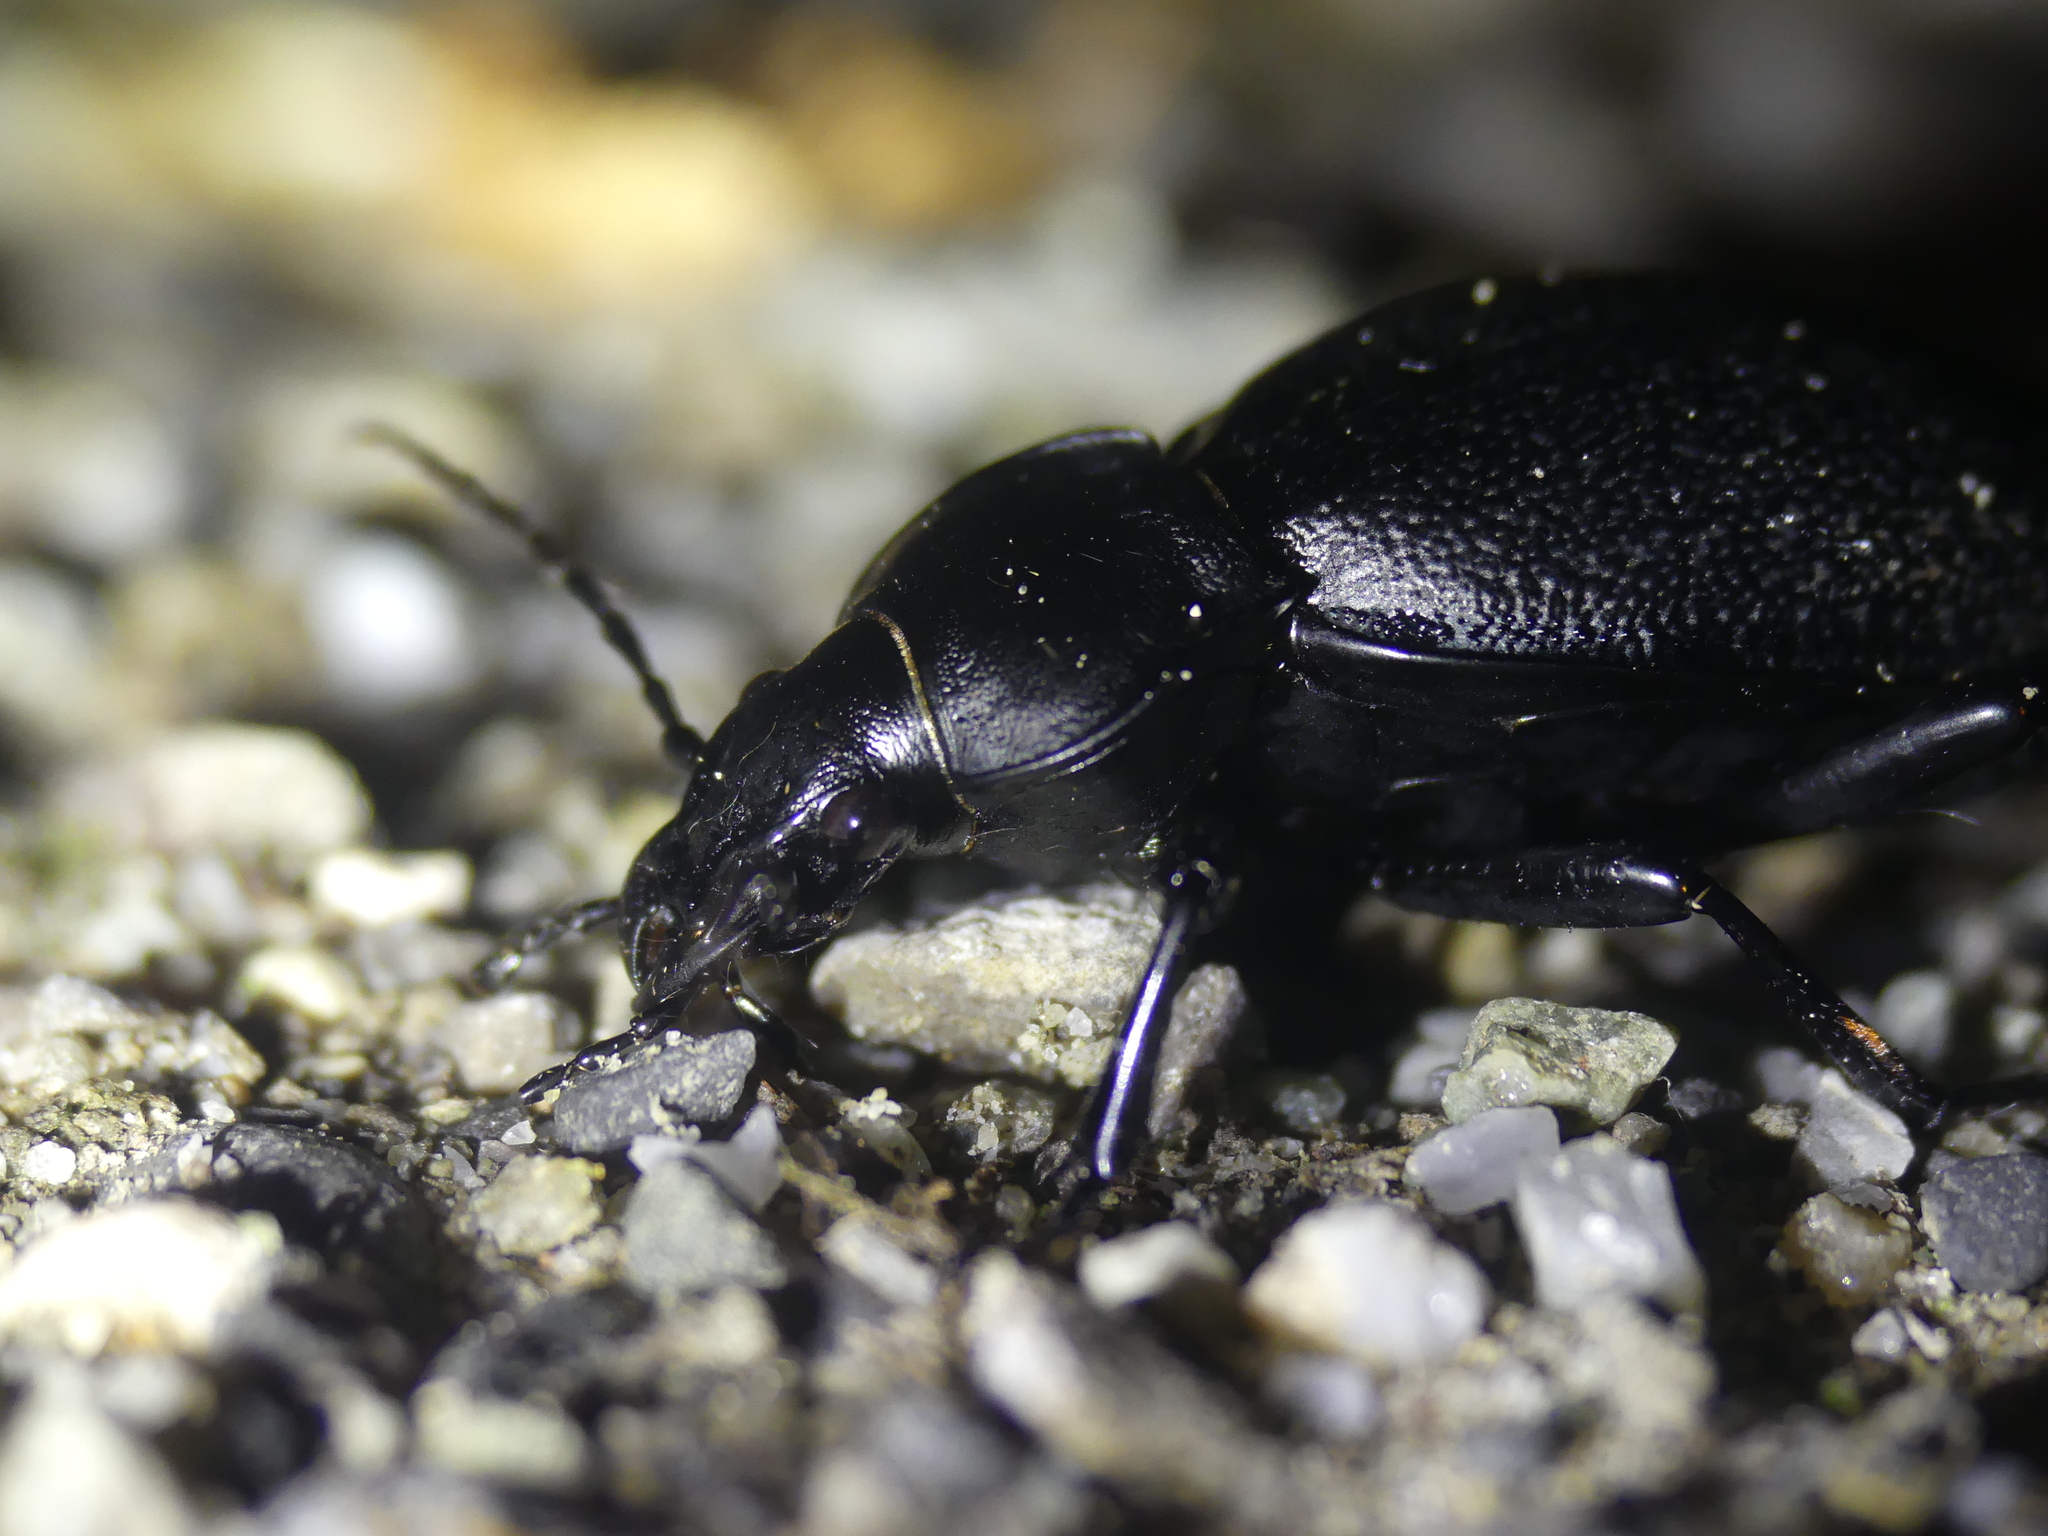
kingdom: Animalia
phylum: Arthropoda
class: Insecta
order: Coleoptera
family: Carabidae
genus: Carabus
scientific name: Carabus coriaceus
